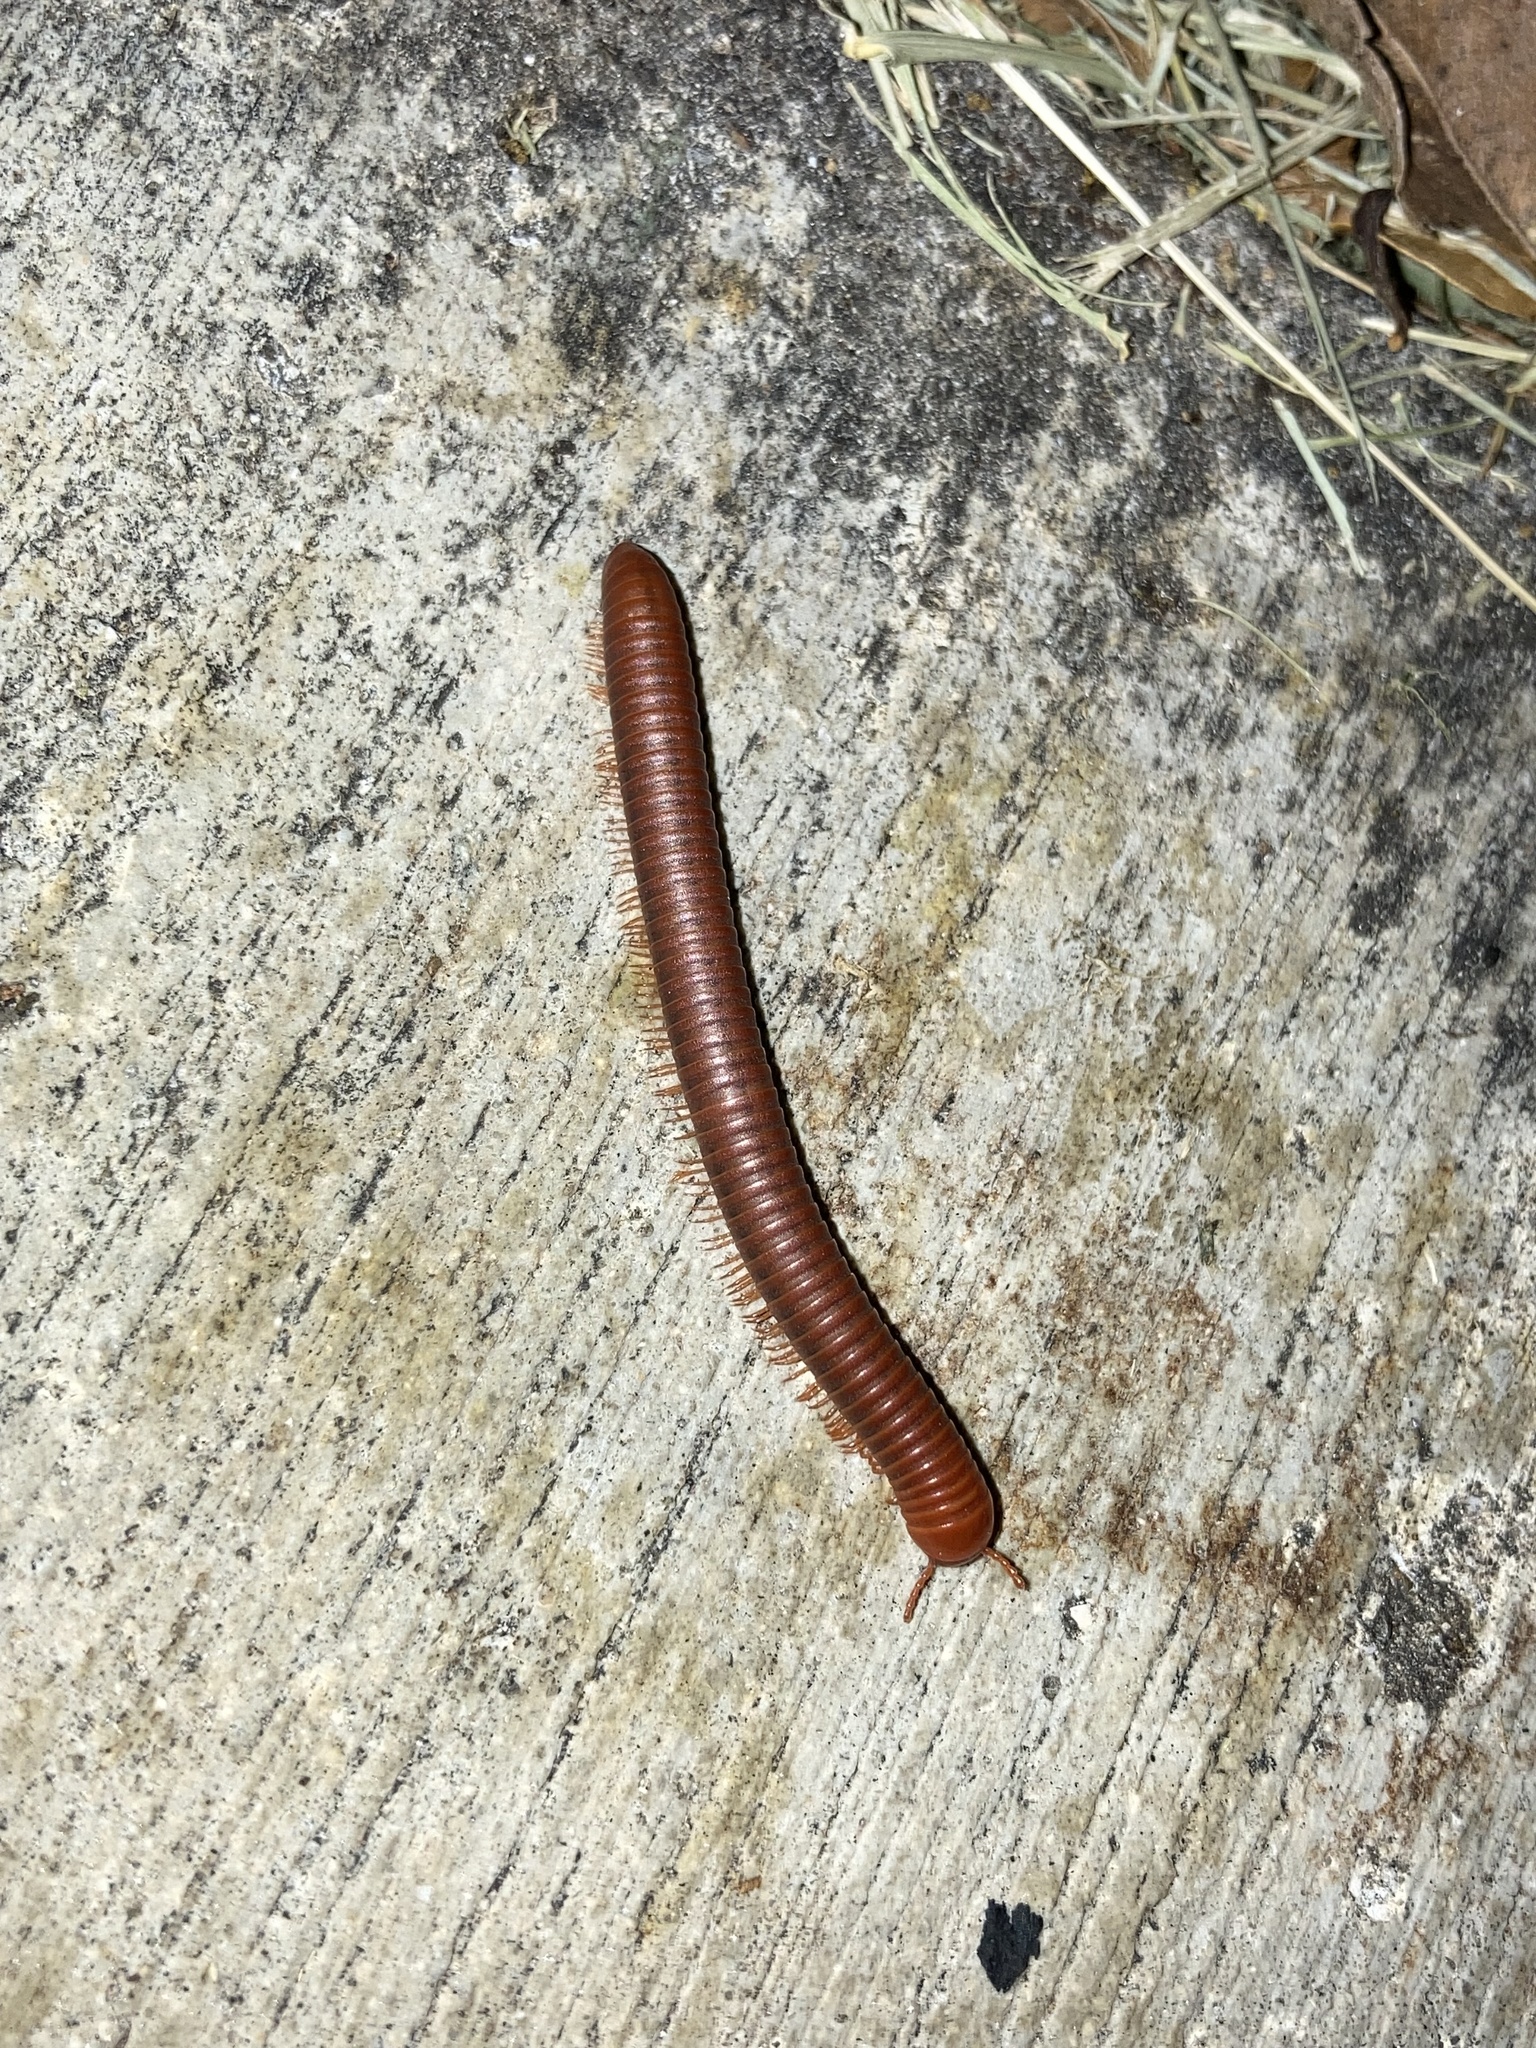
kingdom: Animalia
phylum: Arthropoda
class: Diplopoda
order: Spirobolida
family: Pachybolidae
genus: Trigoniulus
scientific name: Trigoniulus corallinus
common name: Millipede
